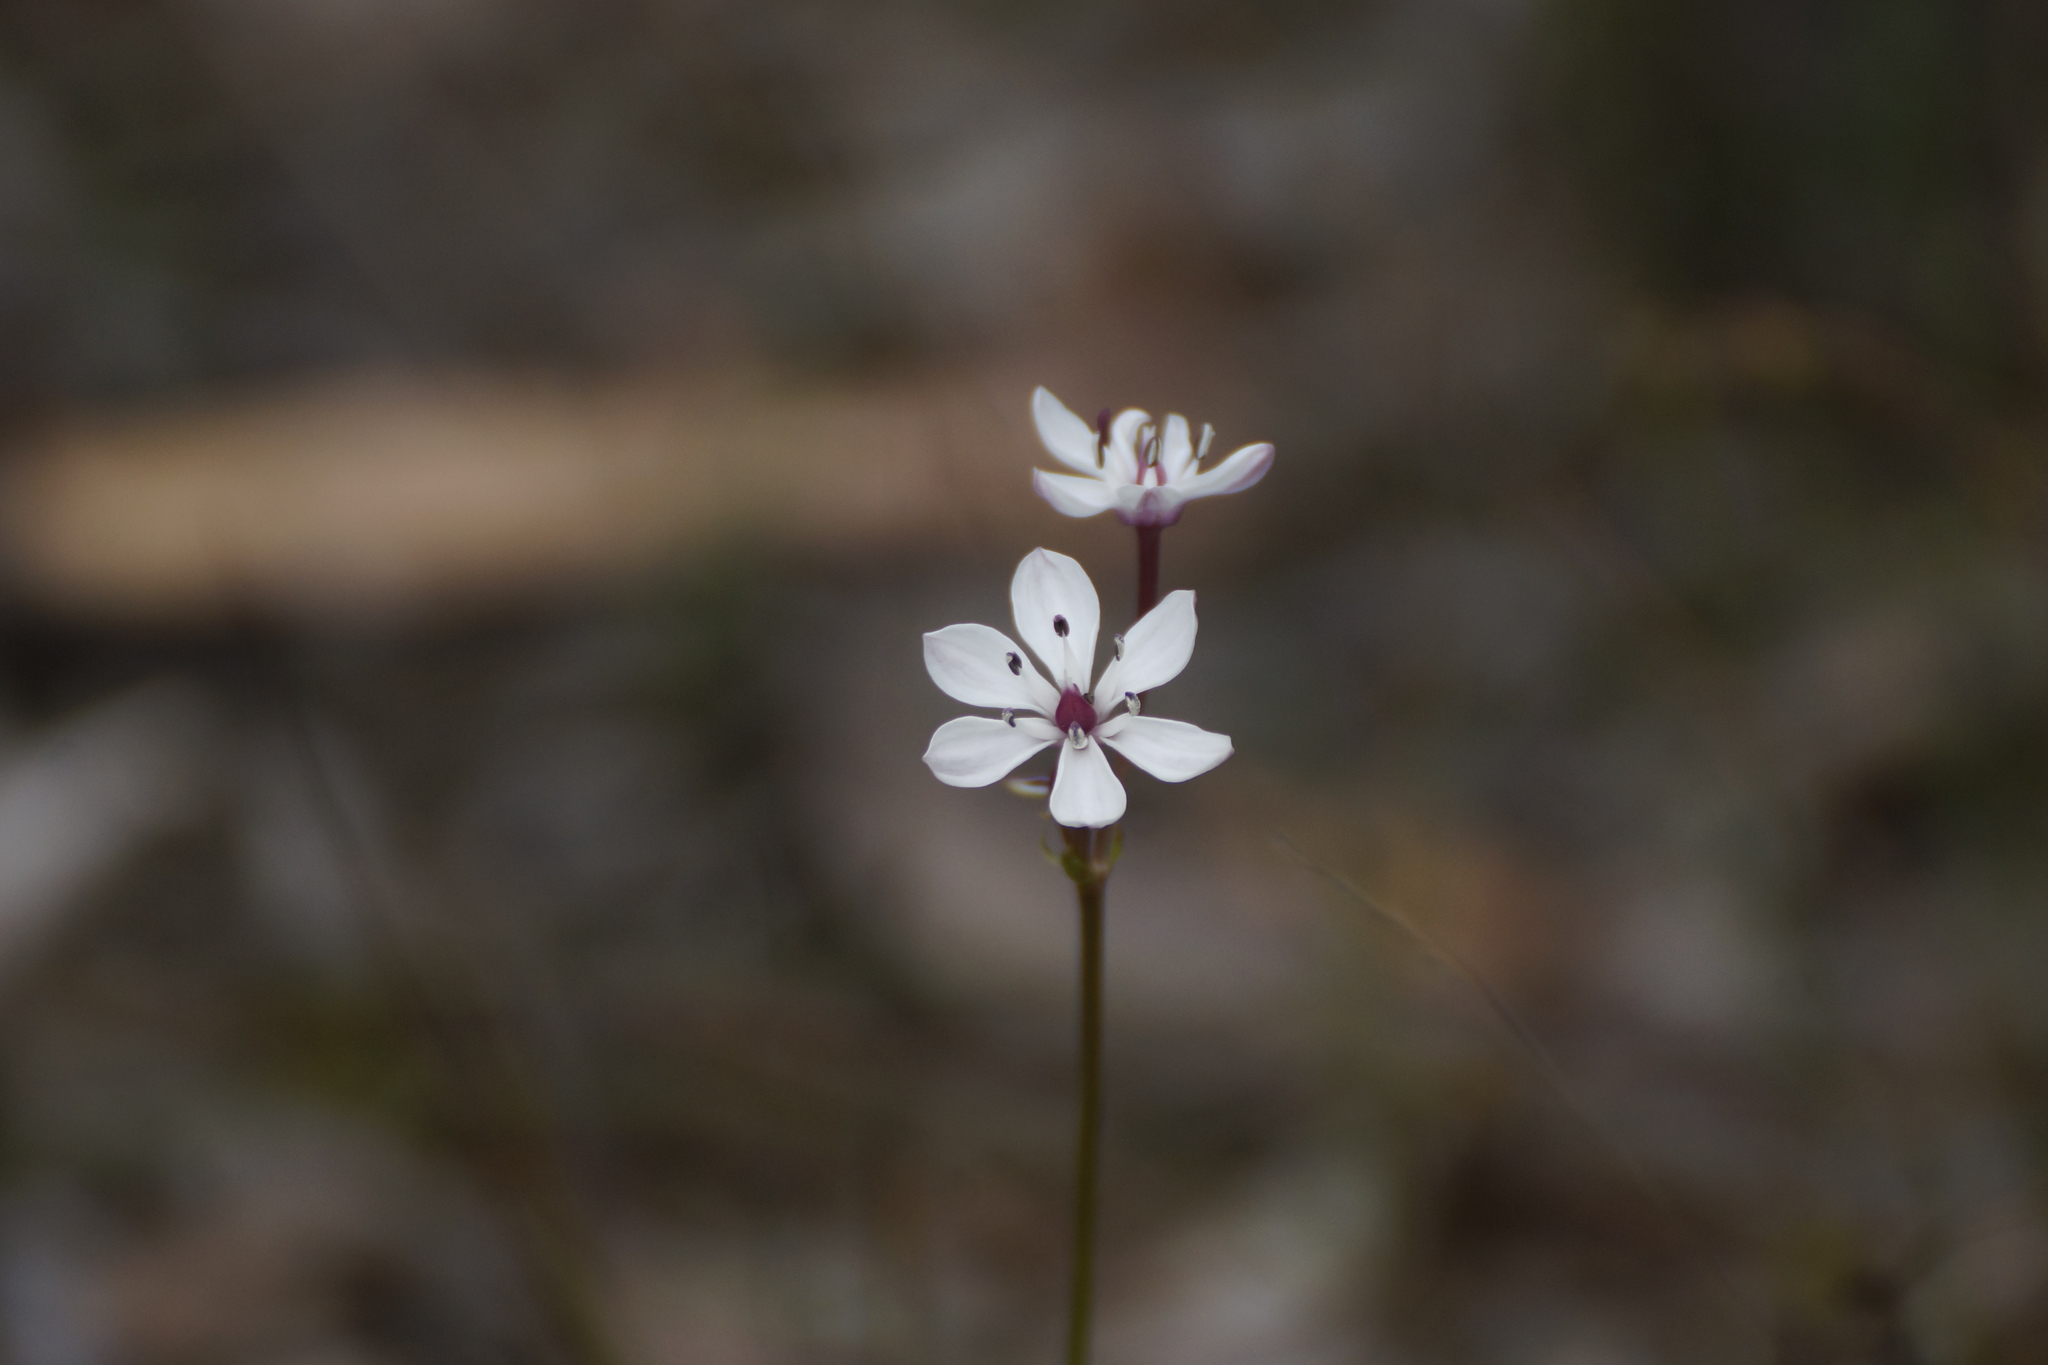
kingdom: Plantae
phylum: Tracheophyta
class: Liliopsida
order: Liliales
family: Colchicaceae
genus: Burchardia
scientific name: Burchardia umbellata
